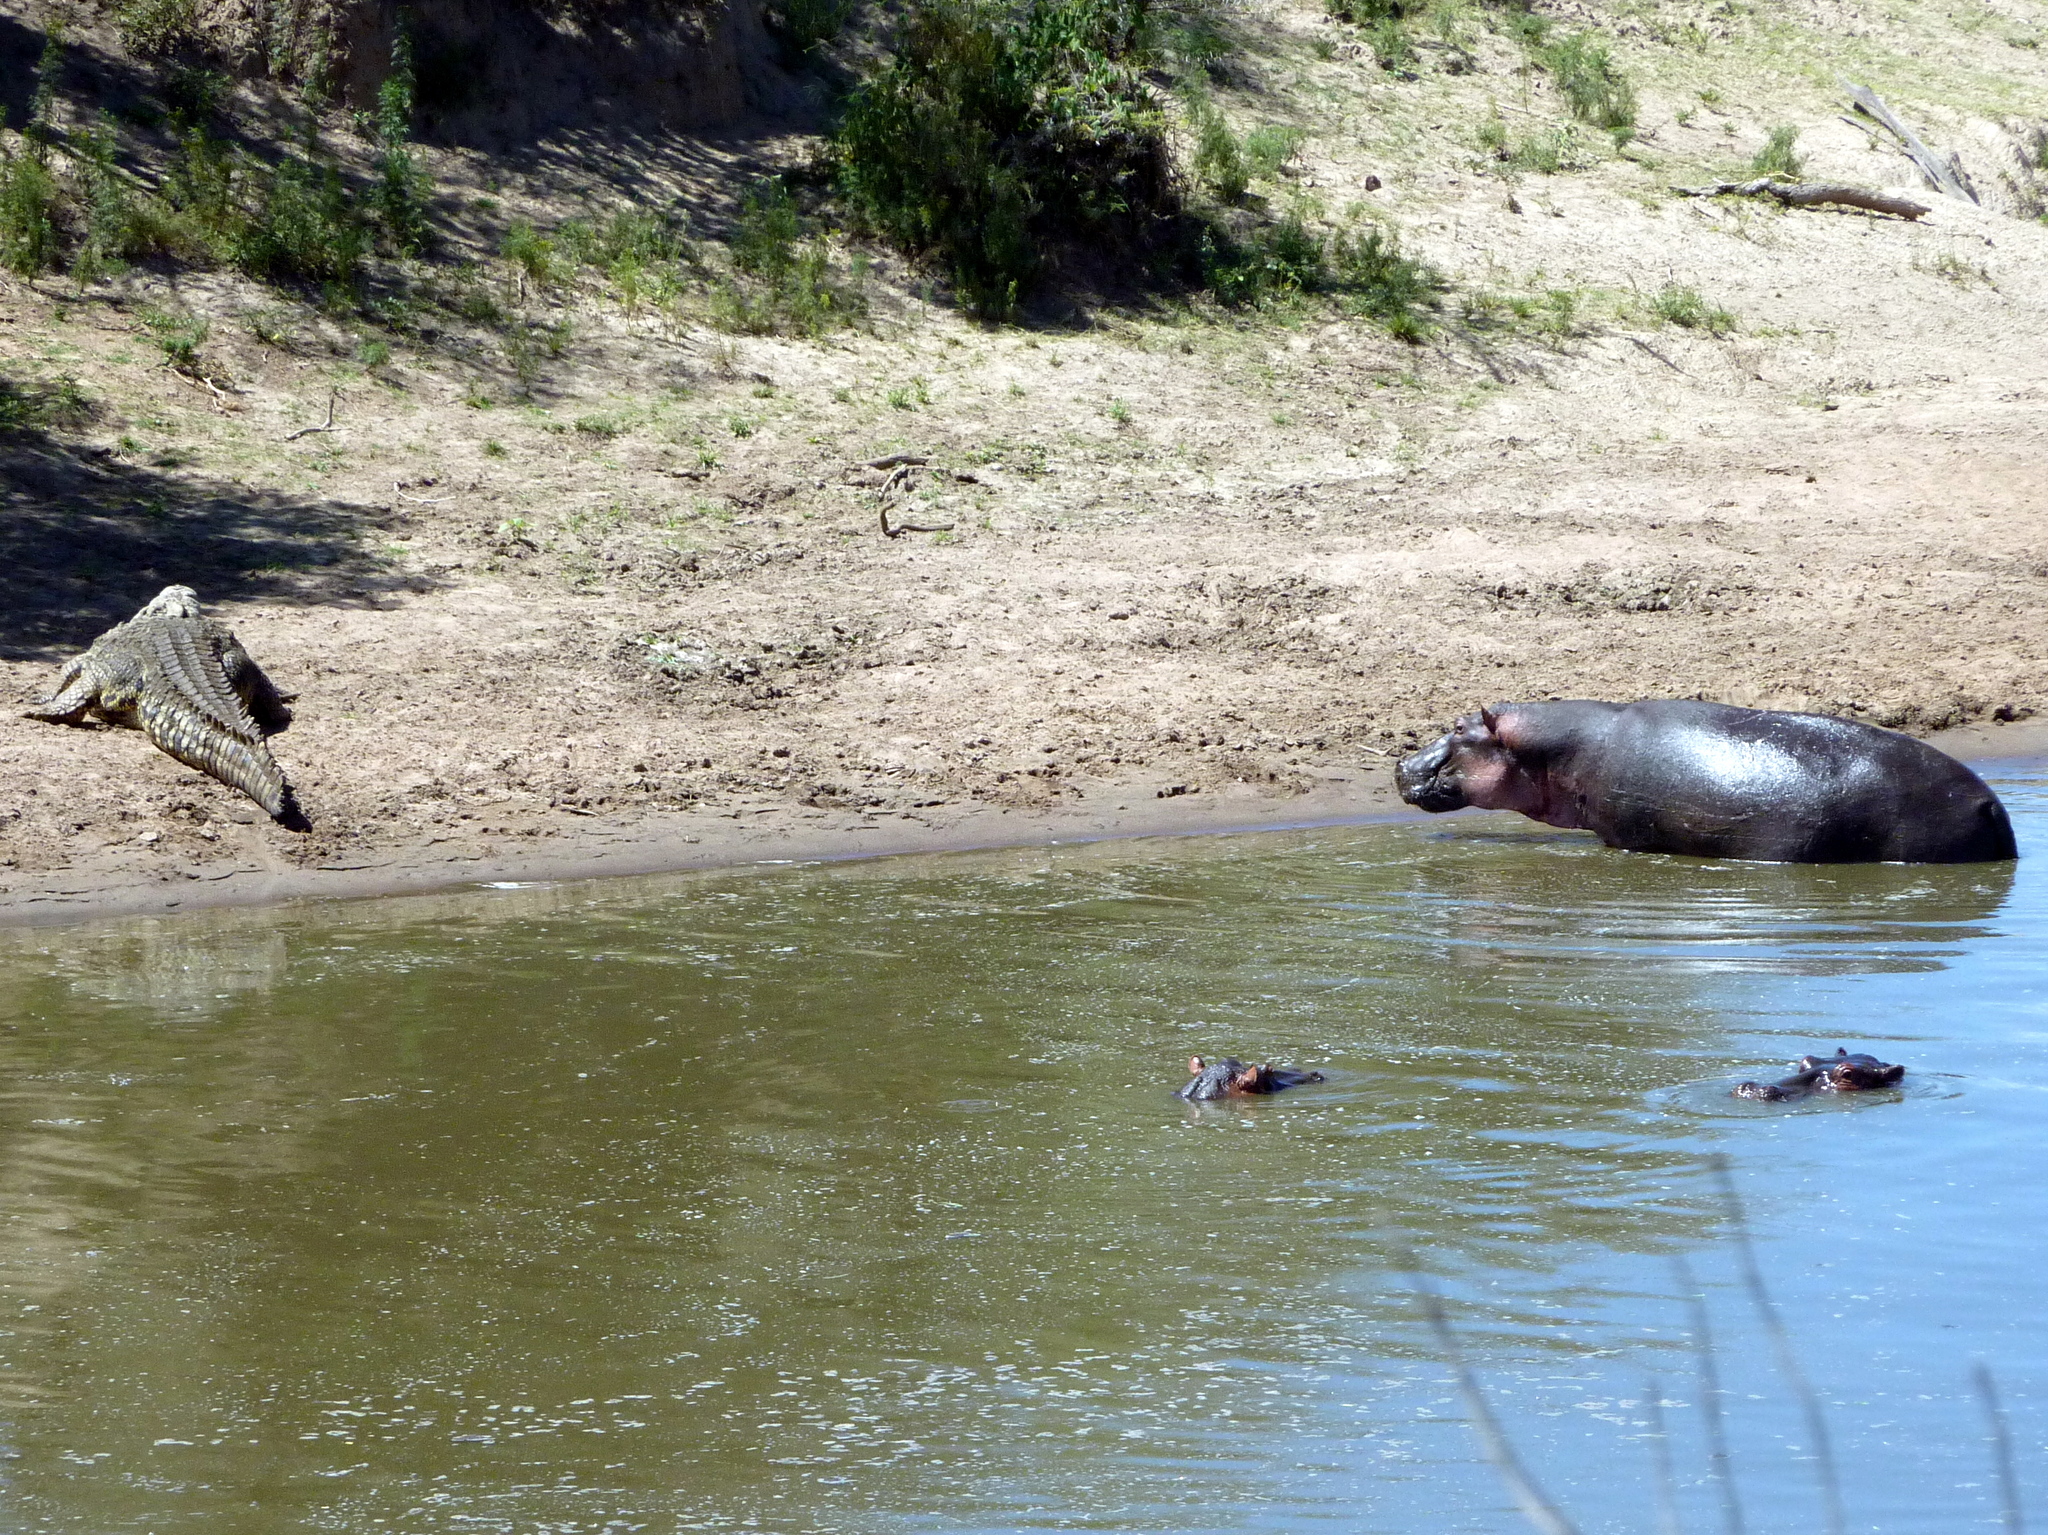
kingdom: Animalia
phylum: Chordata
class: Mammalia
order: Artiodactyla
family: Hippopotamidae
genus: Hippopotamus
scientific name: Hippopotamus amphibius
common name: Common hippopotamus
